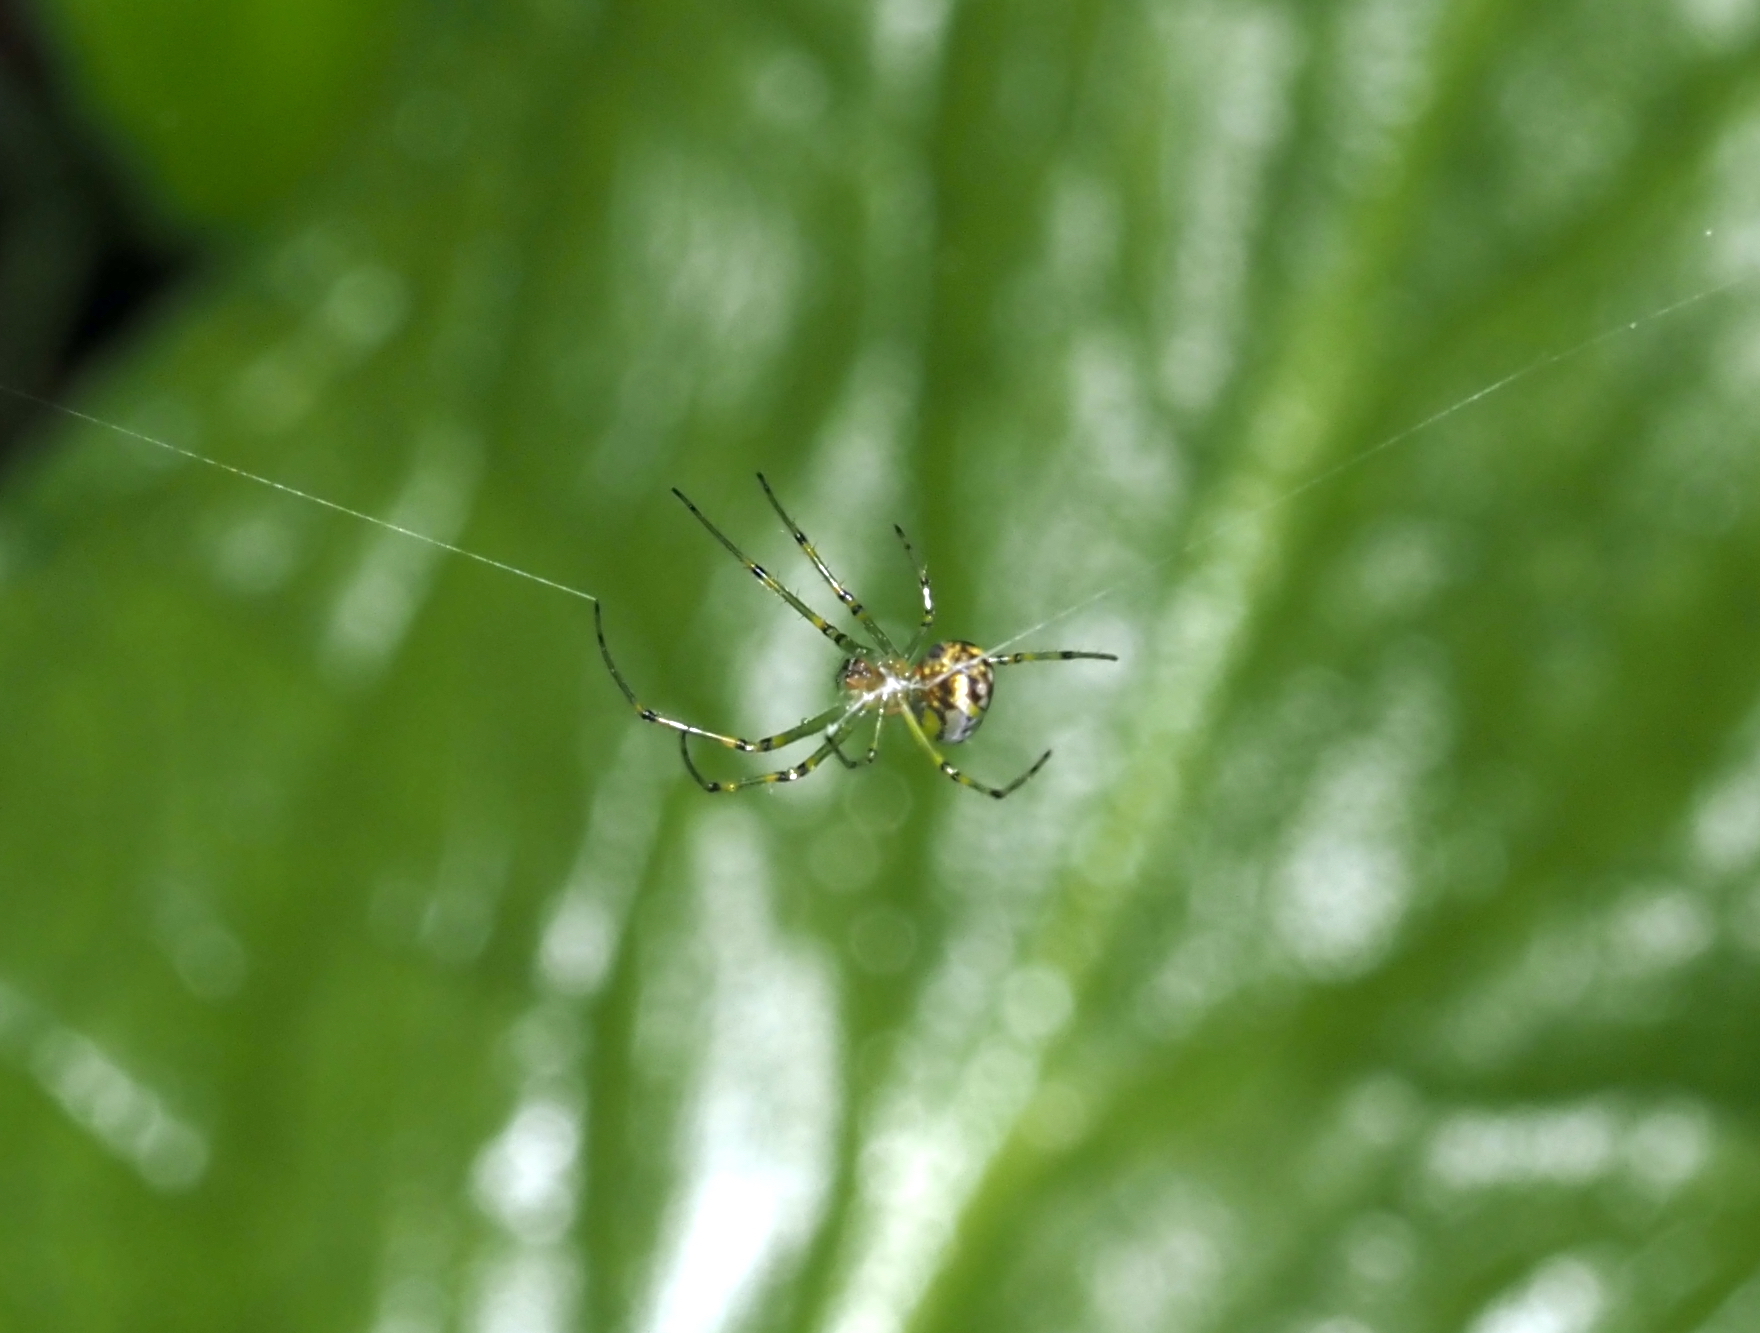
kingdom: Animalia
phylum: Arthropoda
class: Arachnida
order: Araneae
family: Tetragnathidae
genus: Leucauge
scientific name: Leucauge venusta
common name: Longjawed orb weavers
